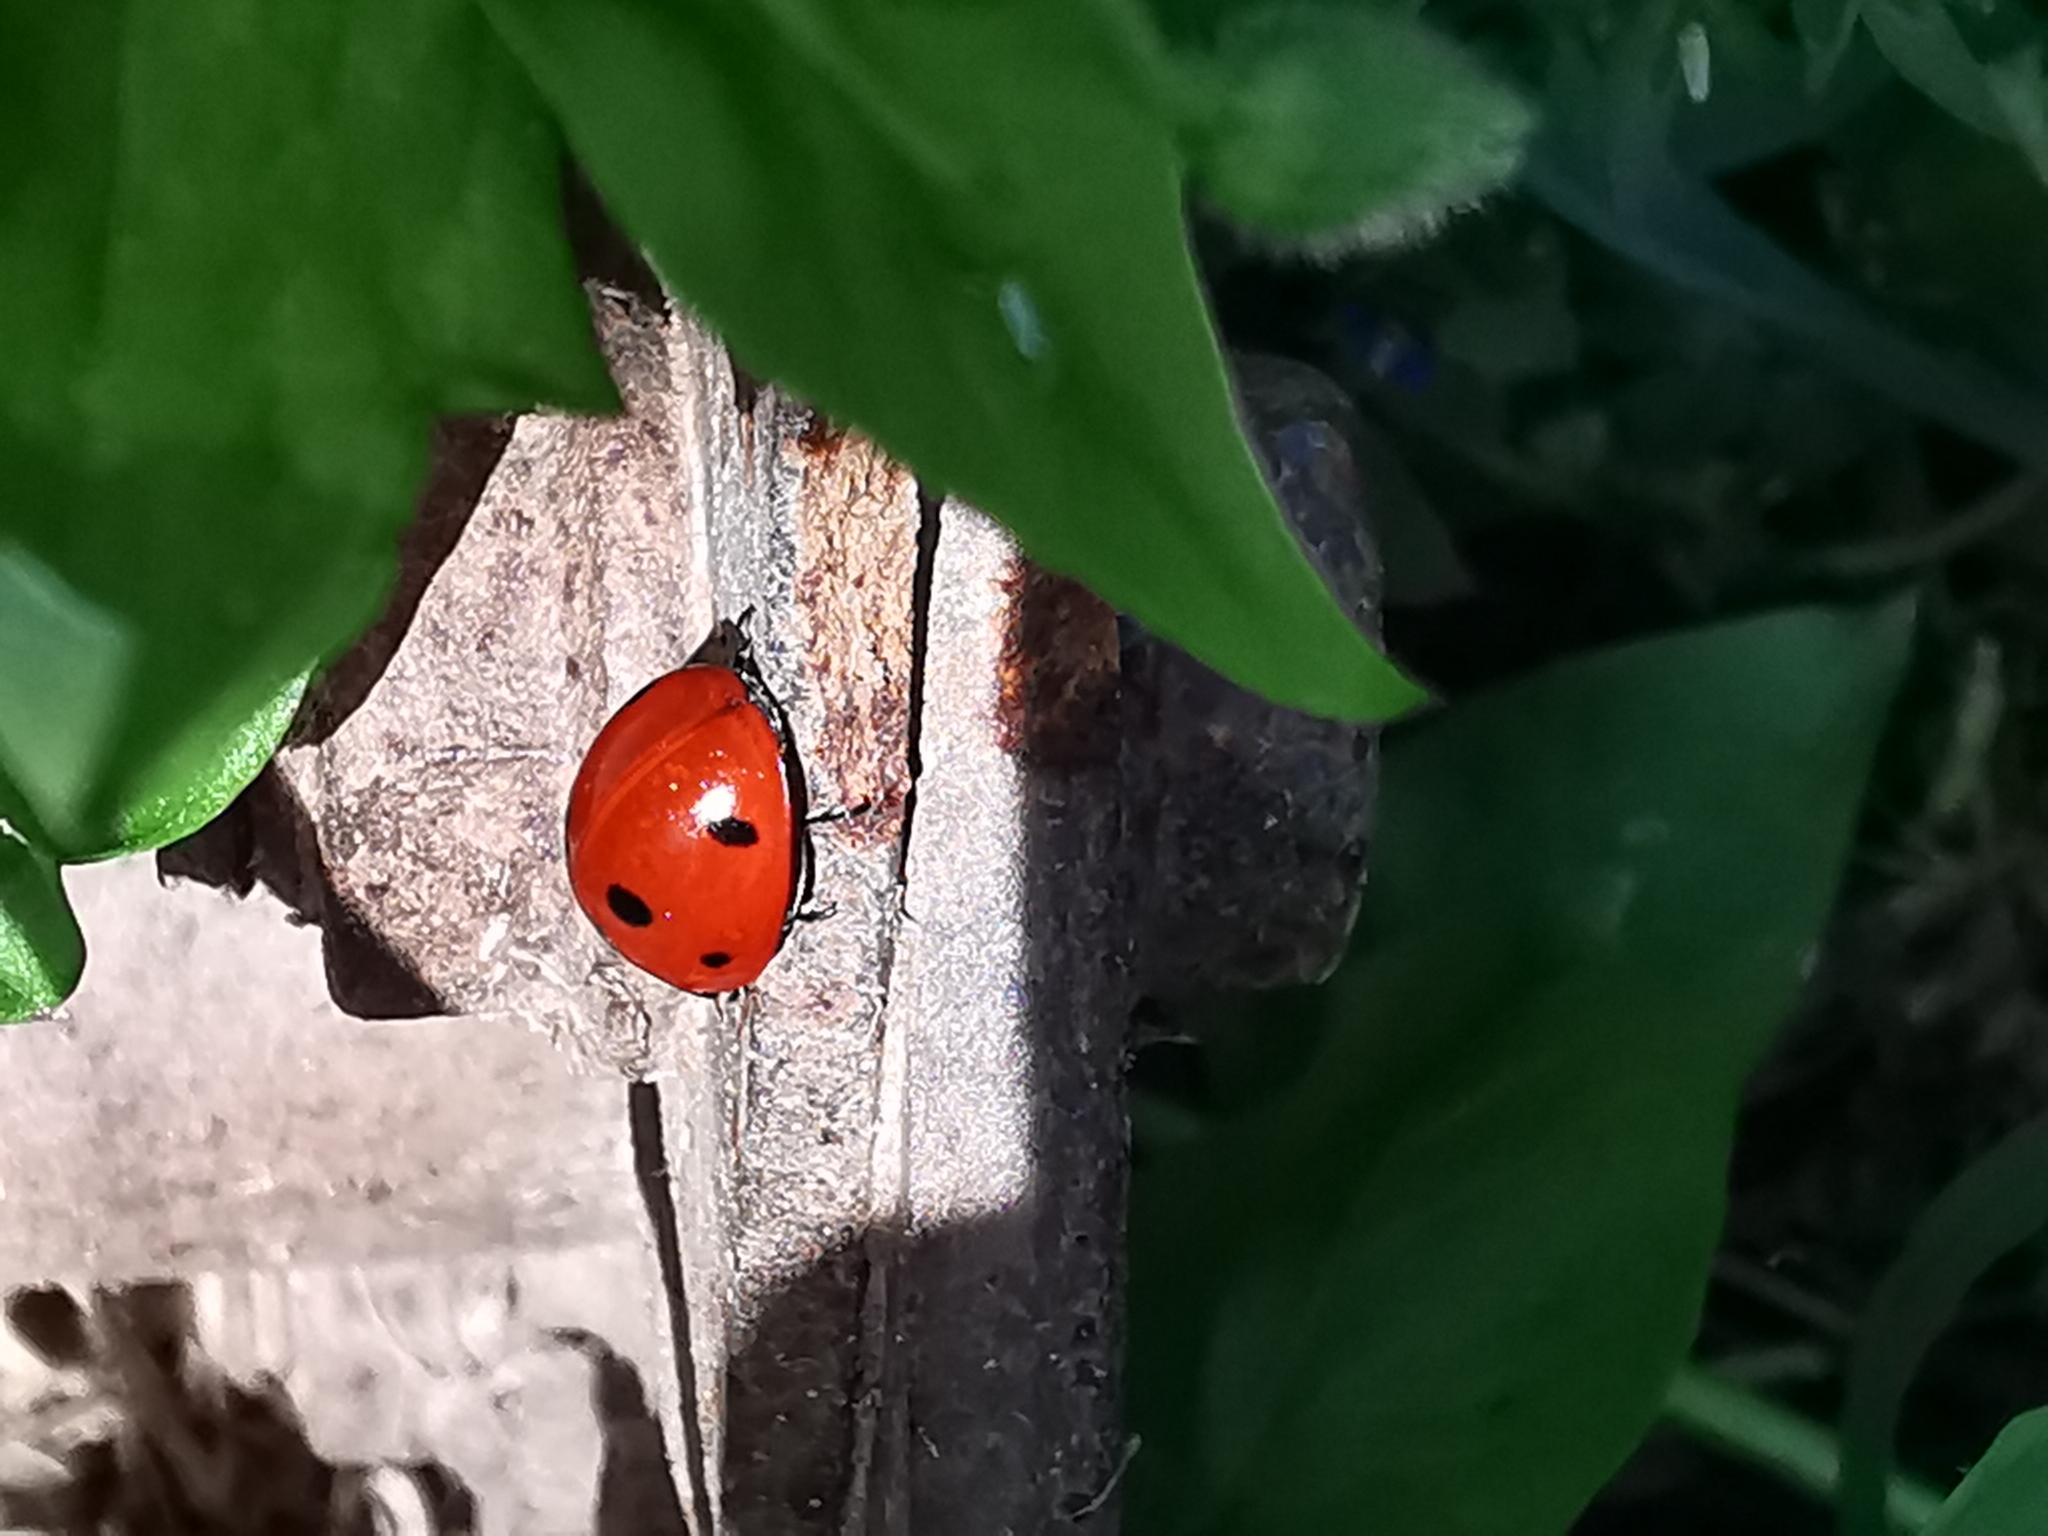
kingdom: Animalia
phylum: Arthropoda
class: Insecta
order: Coleoptera
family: Coccinellidae
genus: Coccinella
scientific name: Coccinella septempunctata
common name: Sevenspotted lady beetle
